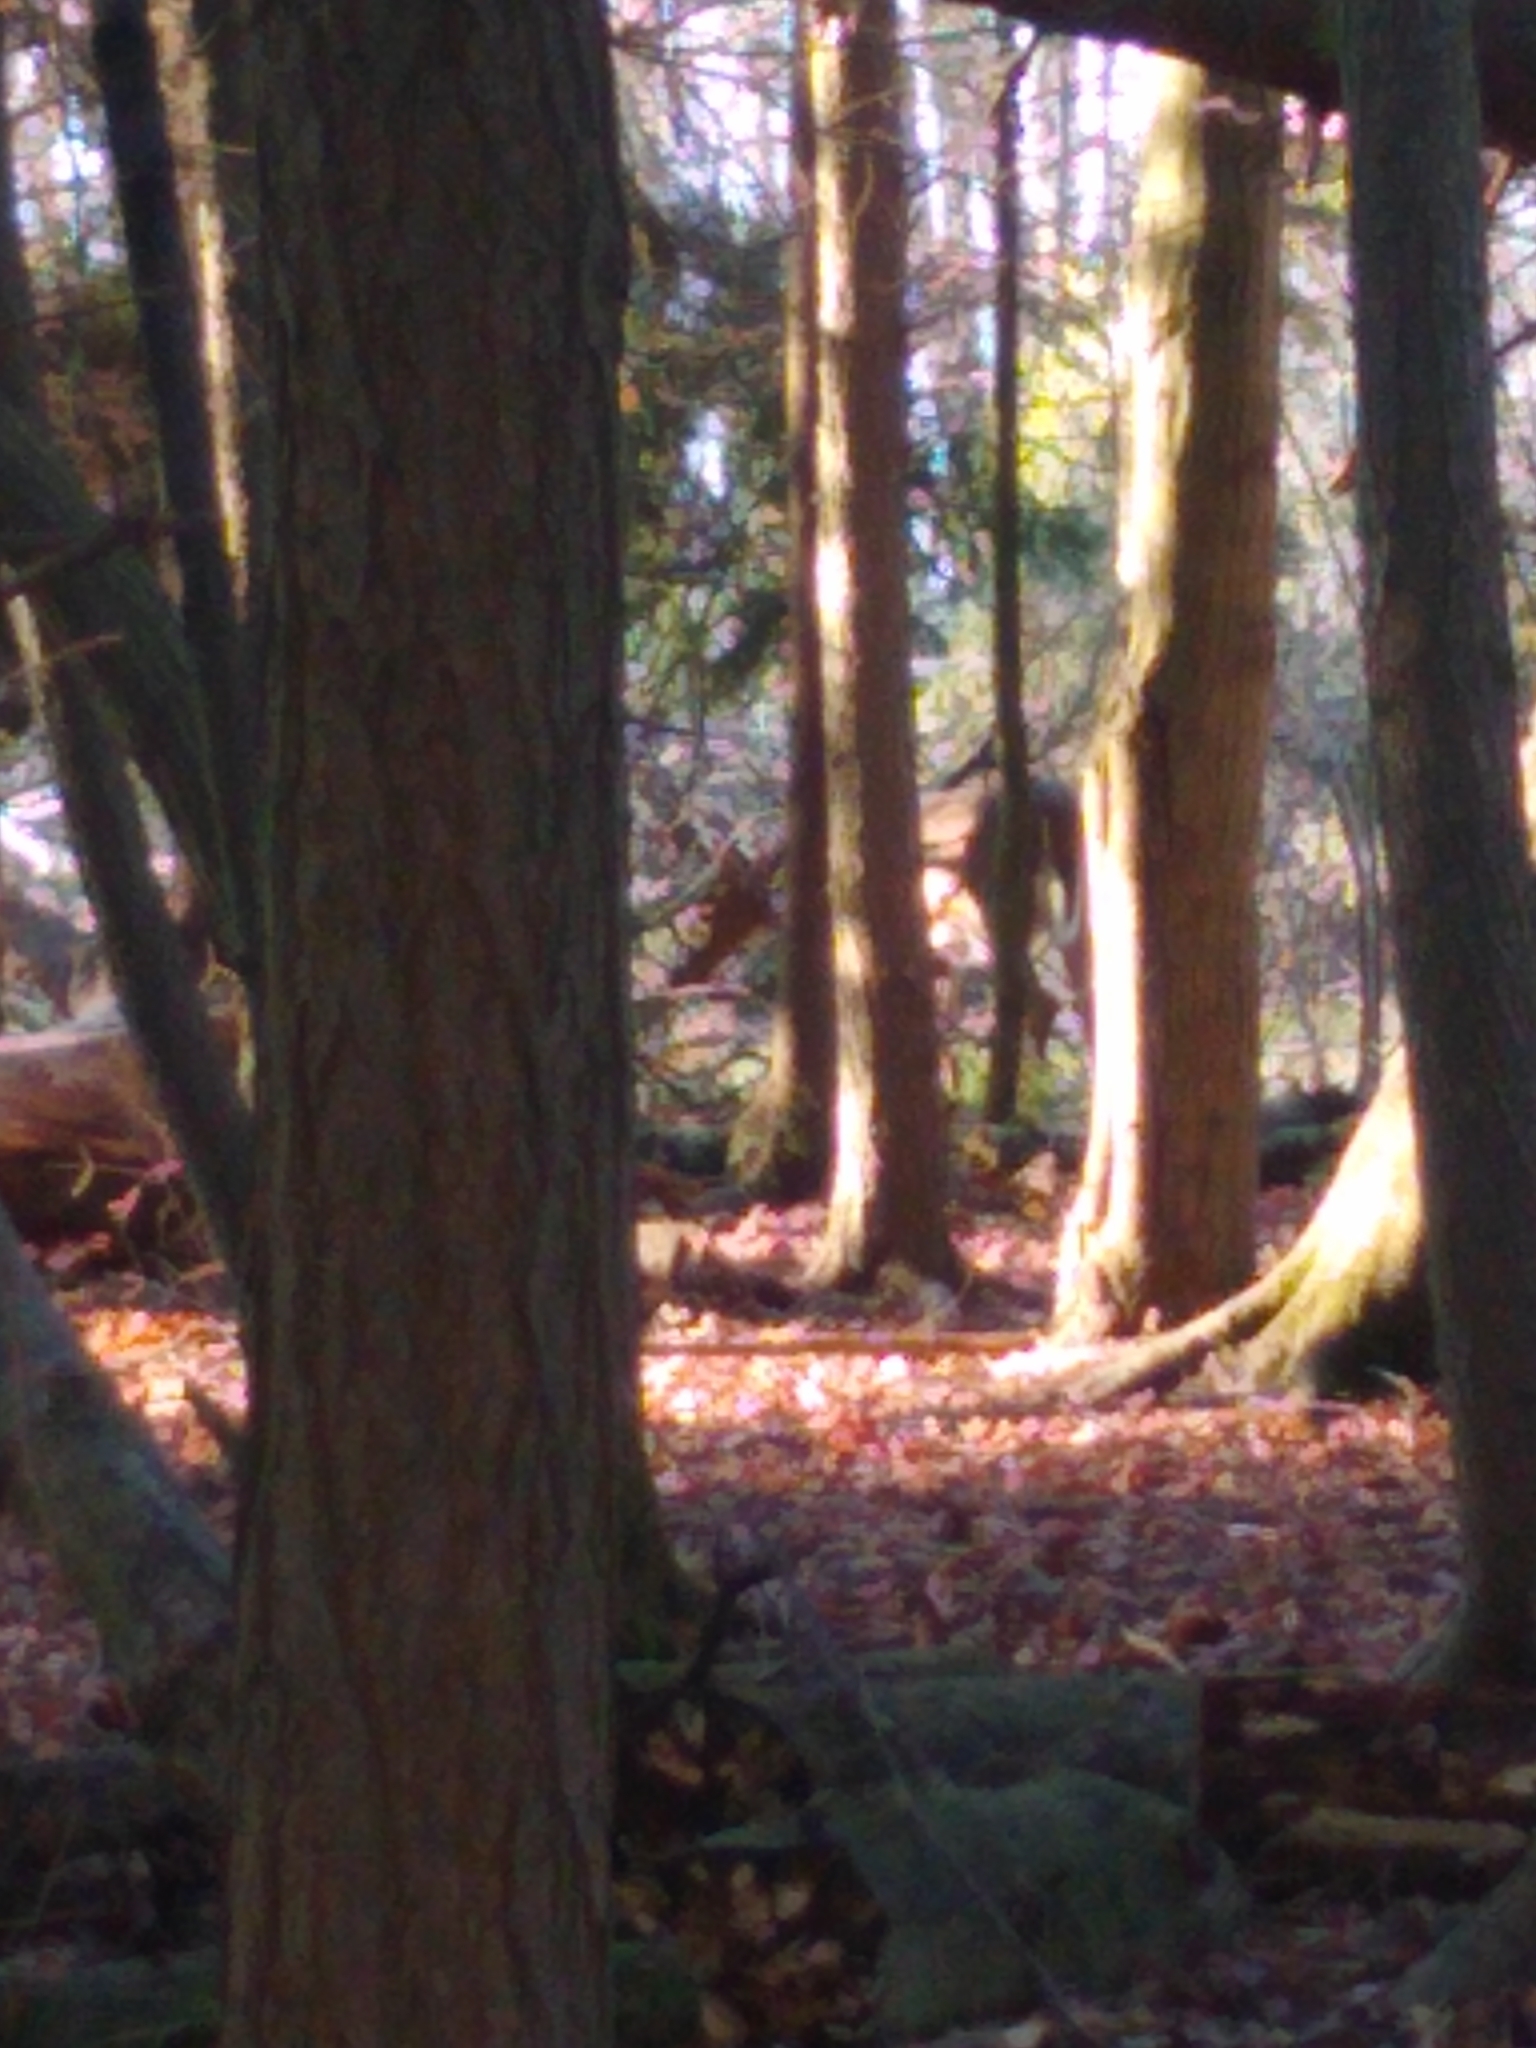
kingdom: Animalia
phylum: Chordata
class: Mammalia
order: Artiodactyla
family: Cervidae
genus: Odocoileus
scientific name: Odocoileus virginianus
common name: White-tailed deer
